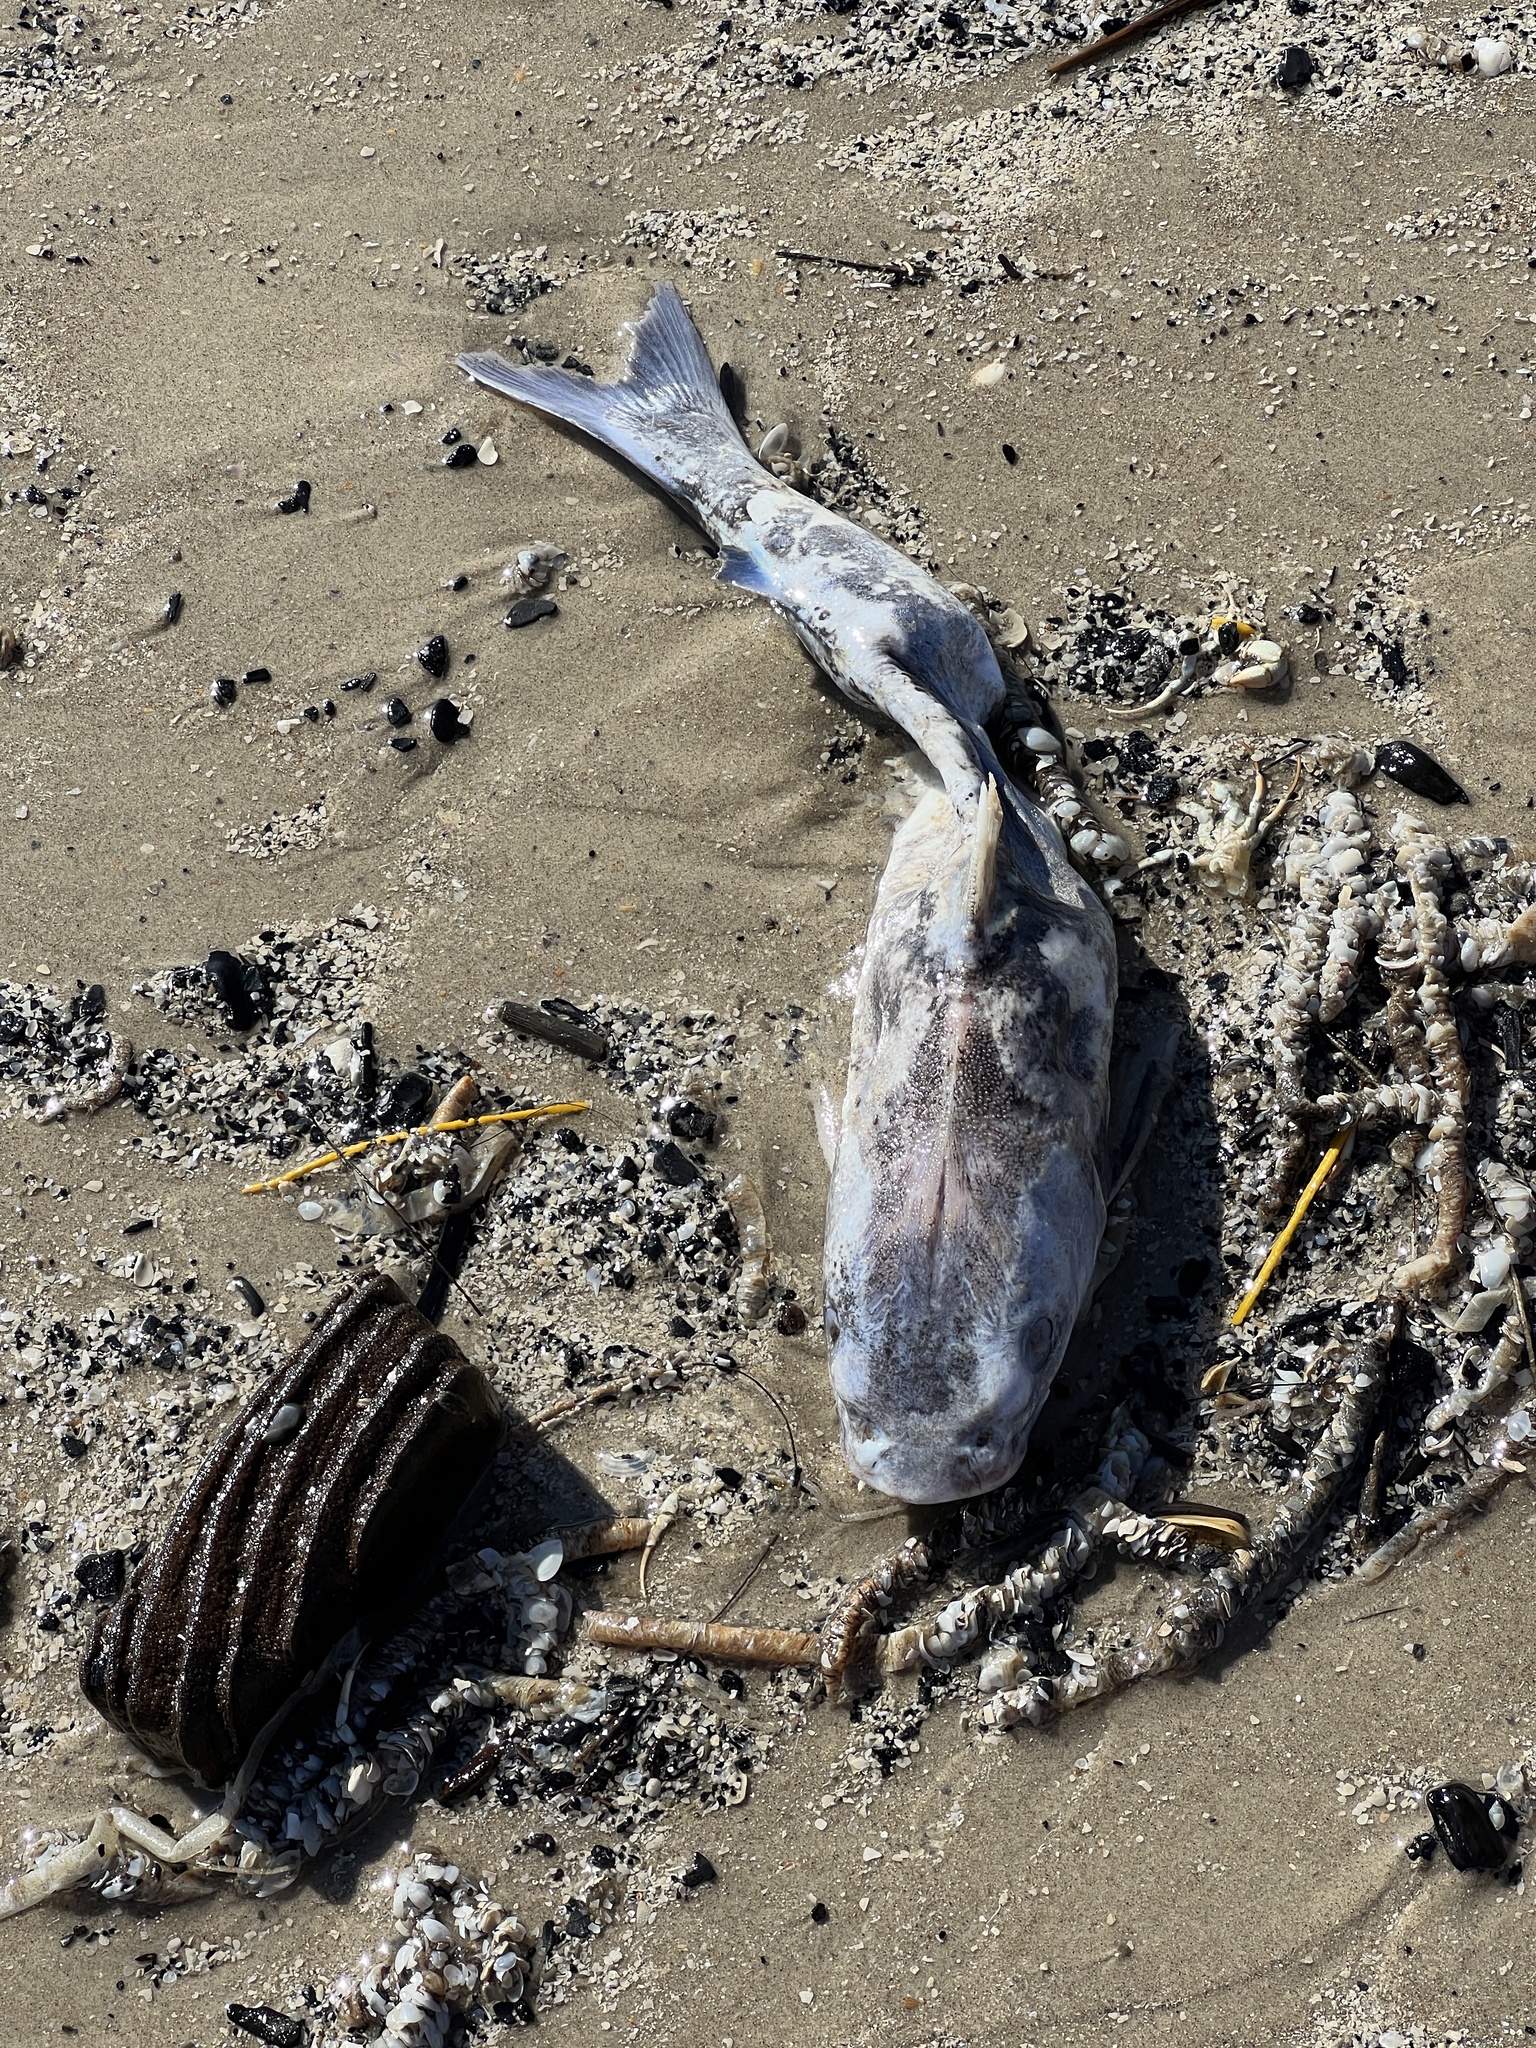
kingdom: Animalia
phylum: Chordata
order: Siluriformes
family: Ariidae
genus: Ariopsis
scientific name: Ariopsis felis
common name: Hardhead catfish
